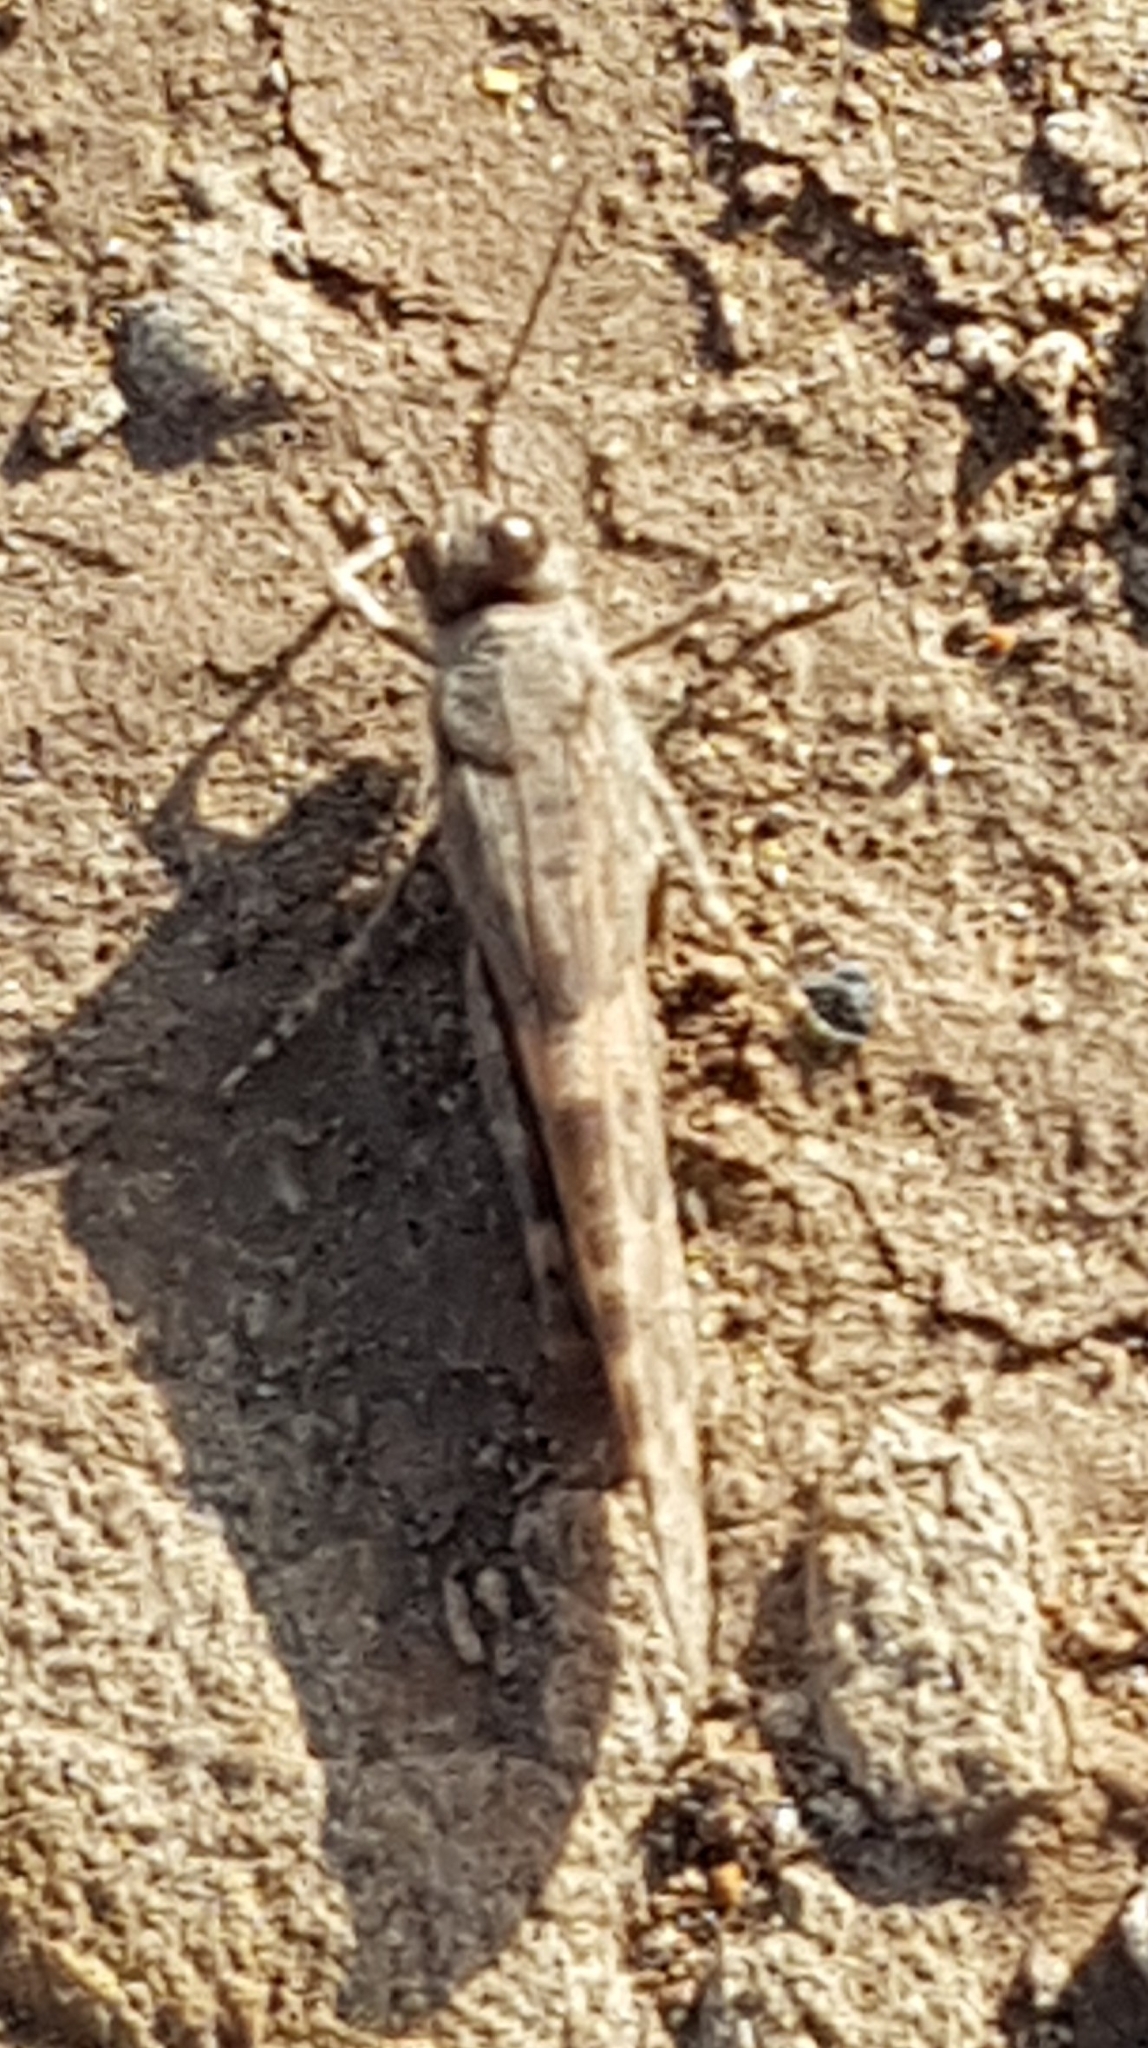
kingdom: Animalia
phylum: Arthropoda
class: Insecta
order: Orthoptera
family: Acrididae
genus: Sphingonotus
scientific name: Sphingonotus rubescens
